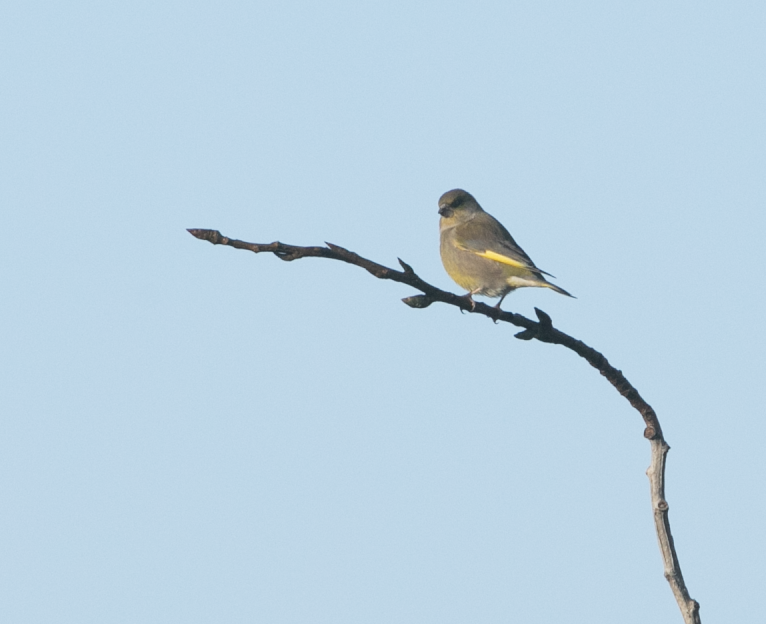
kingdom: Plantae
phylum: Tracheophyta
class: Liliopsida
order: Poales
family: Poaceae
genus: Chloris
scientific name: Chloris chloris
